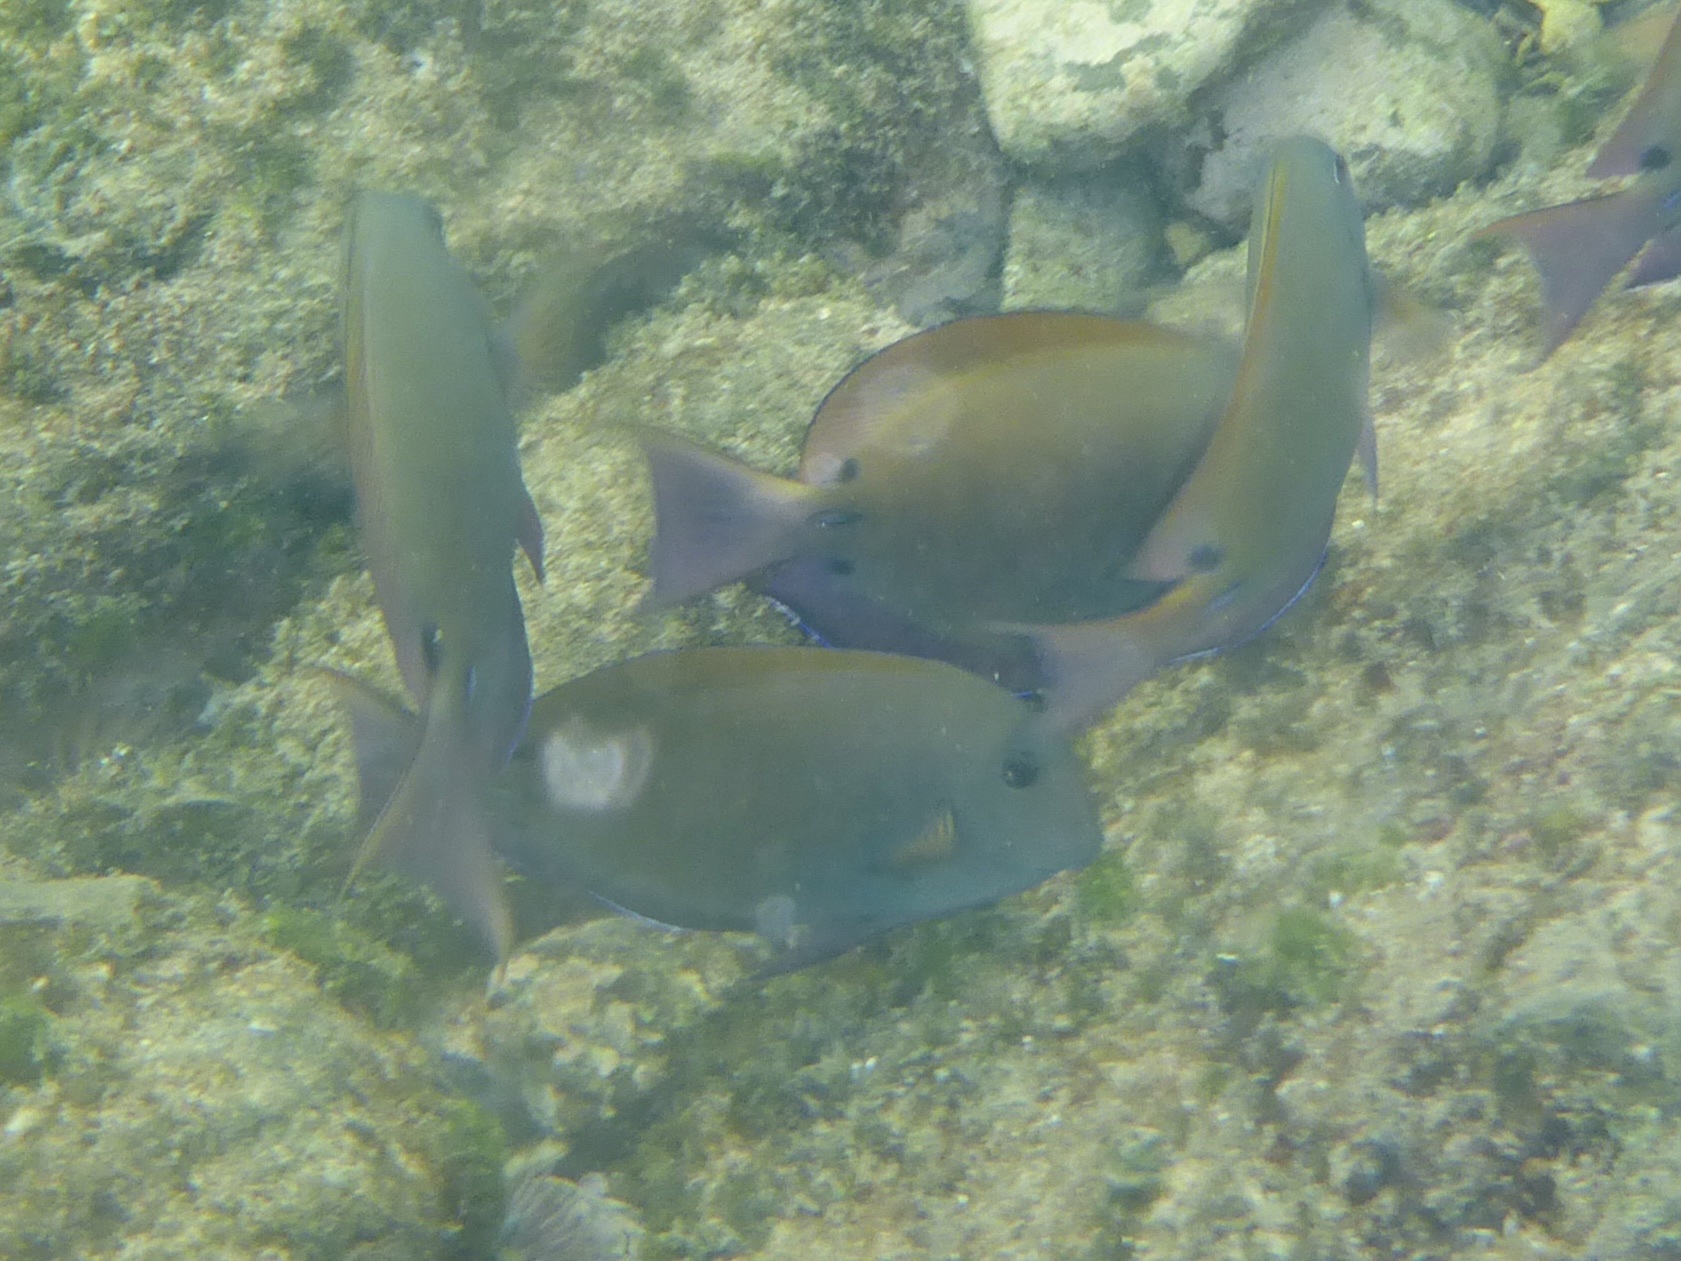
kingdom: Animalia
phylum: Chordata
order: Perciformes
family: Acanthuridae
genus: Acanthurus
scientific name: Acanthurus nigrofuscus
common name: Blackspot surgeonfish
